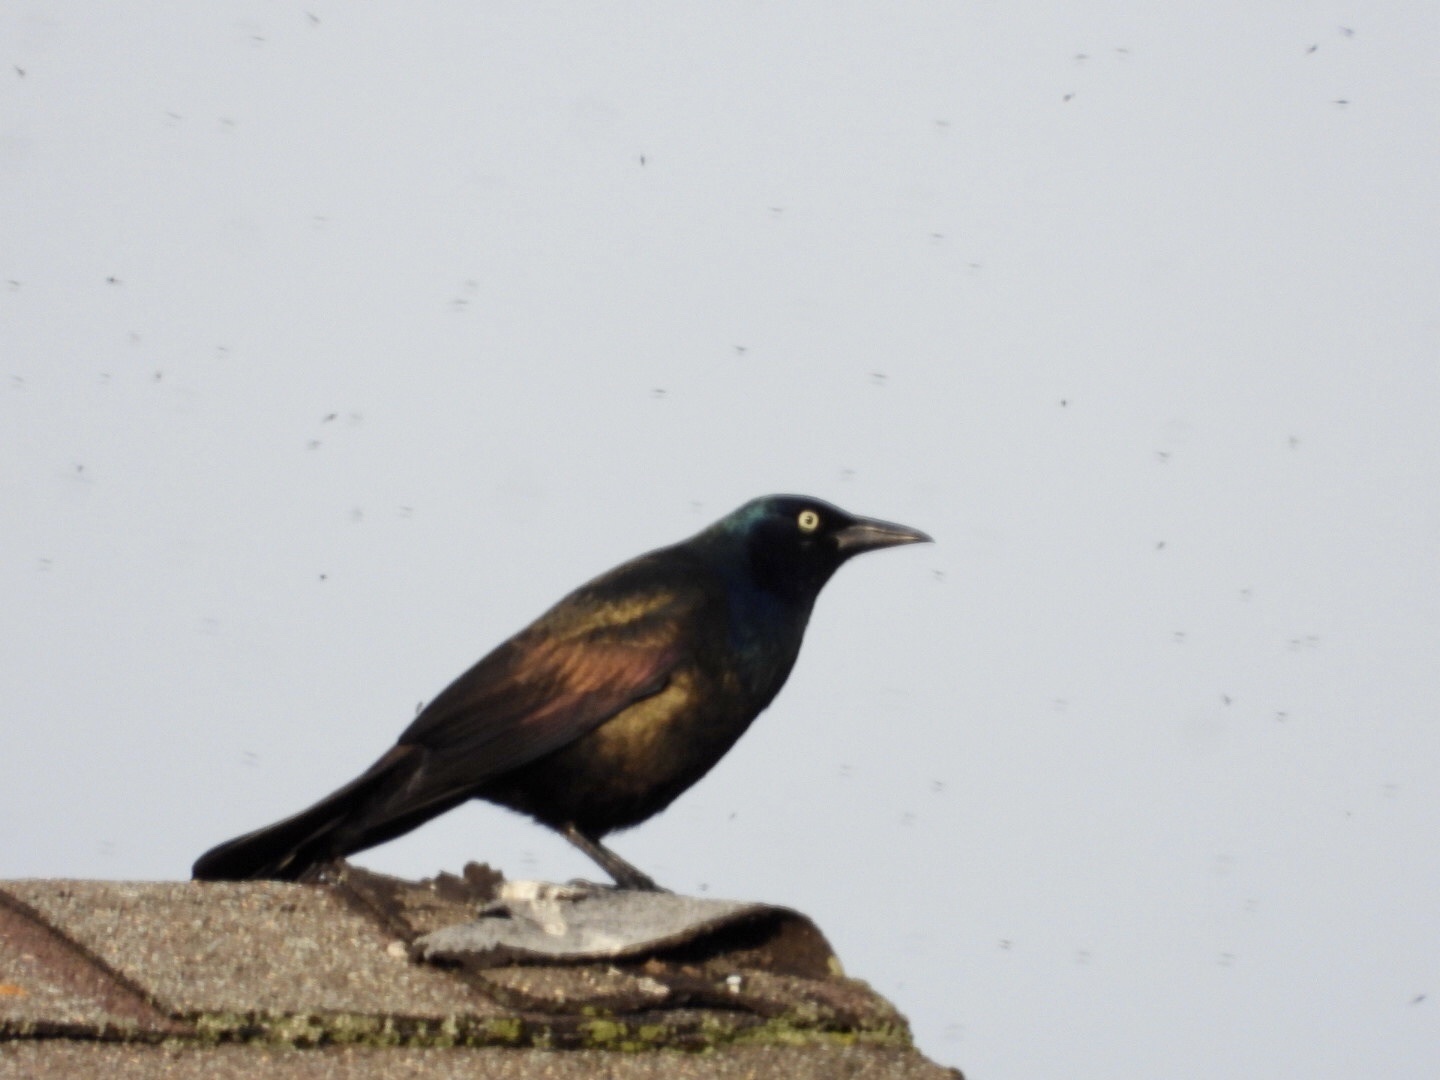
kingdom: Animalia
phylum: Chordata
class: Aves
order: Passeriformes
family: Icteridae
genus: Quiscalus
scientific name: Quiscalus quiscula
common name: Common grackle
